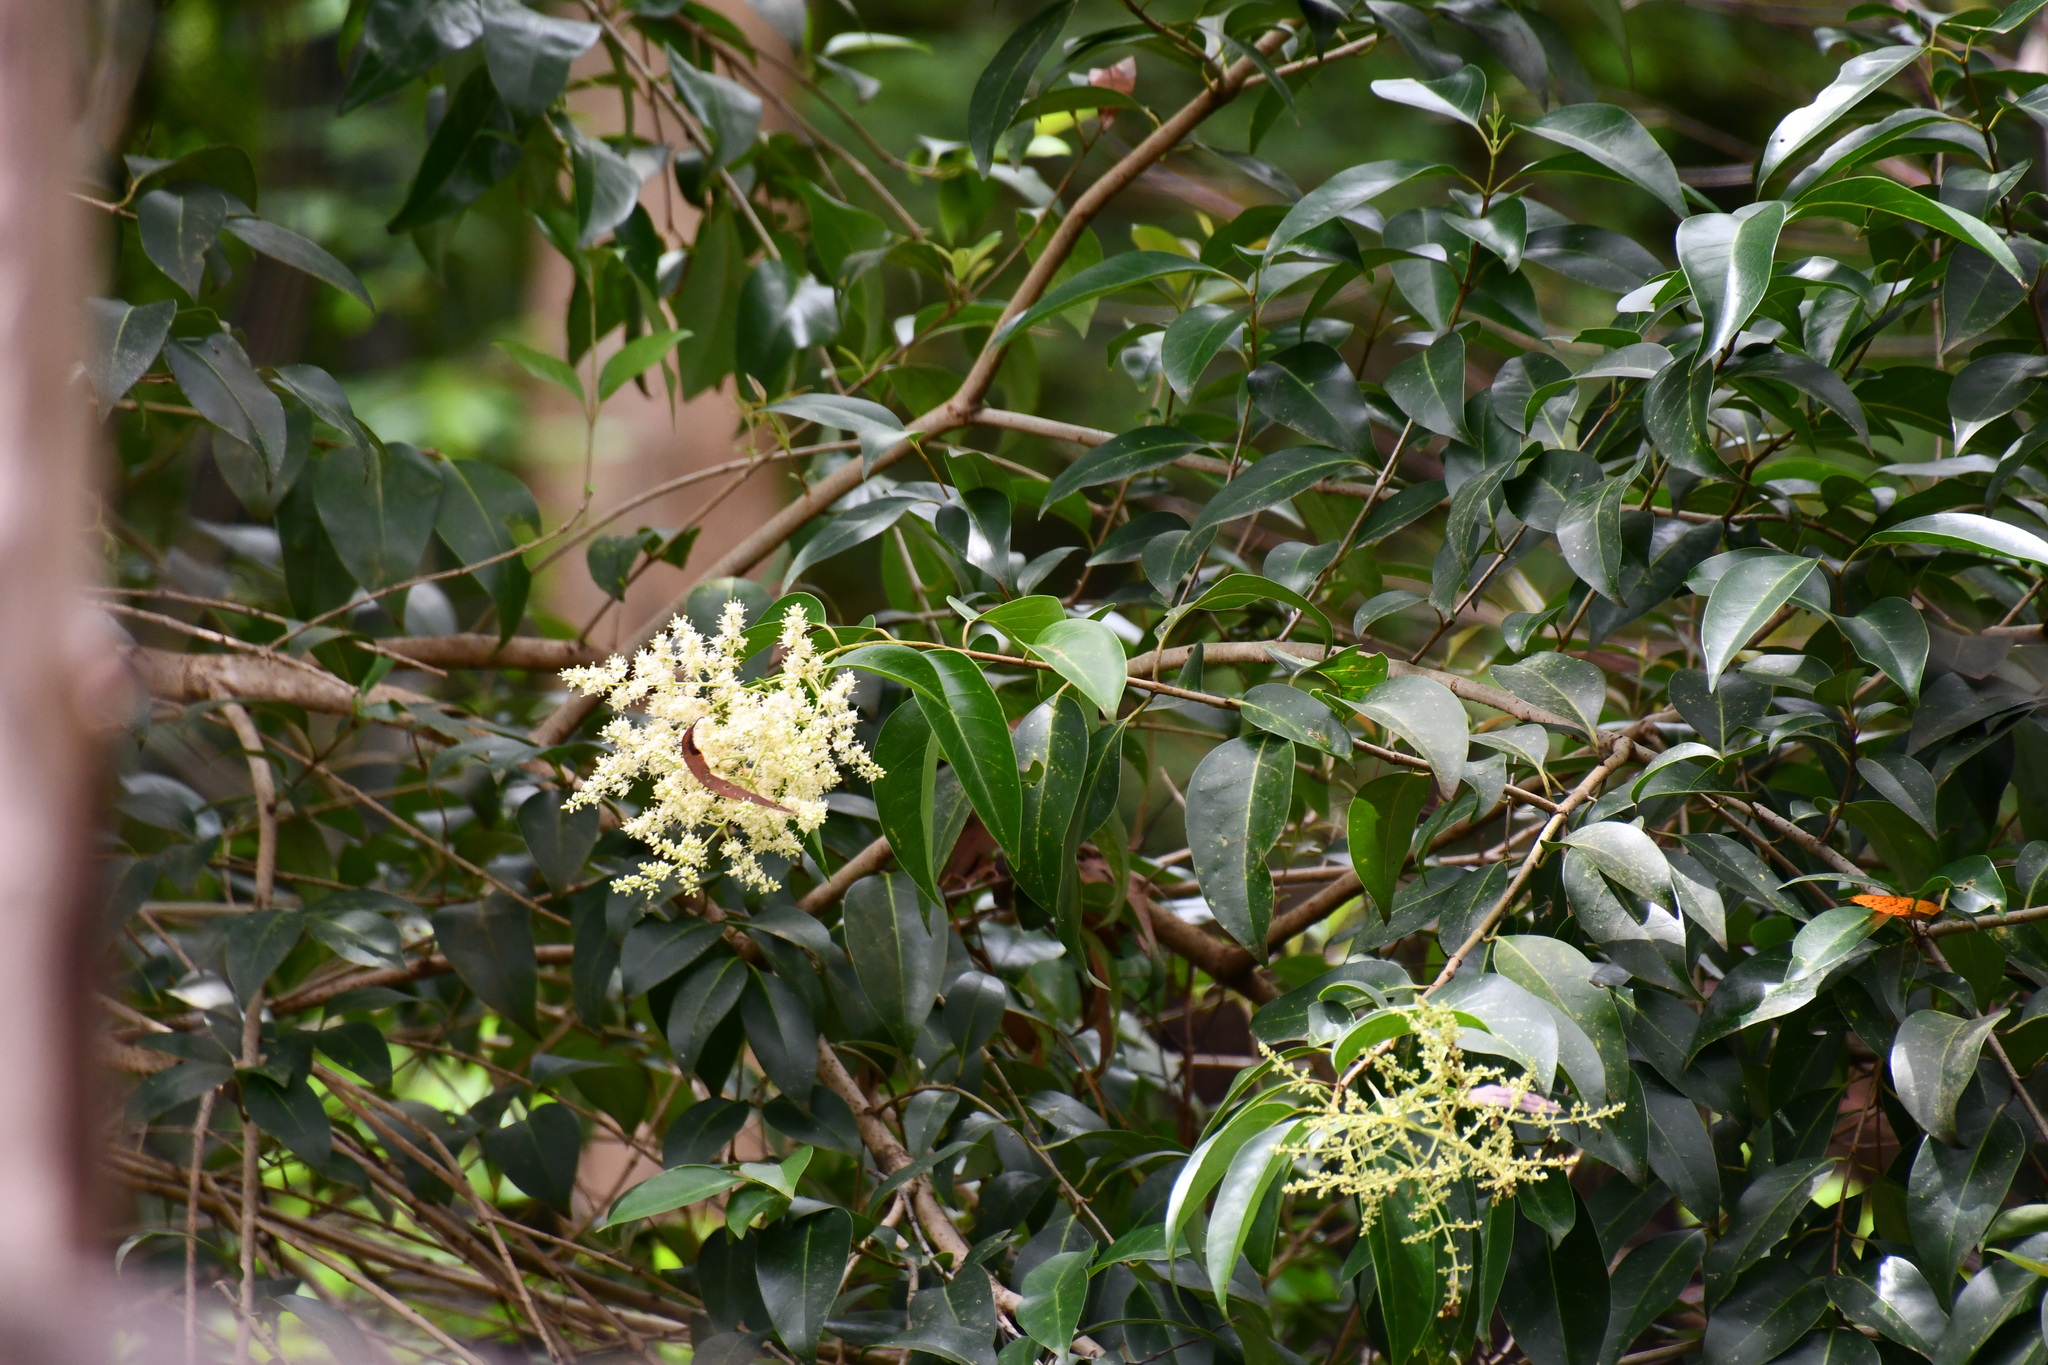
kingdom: Plantae
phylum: Tracheophyta
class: Magnoliopsida
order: Lamiales
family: Oleaceae
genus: Ligustrum
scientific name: Ligustrum lucidum
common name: Glossy privet
